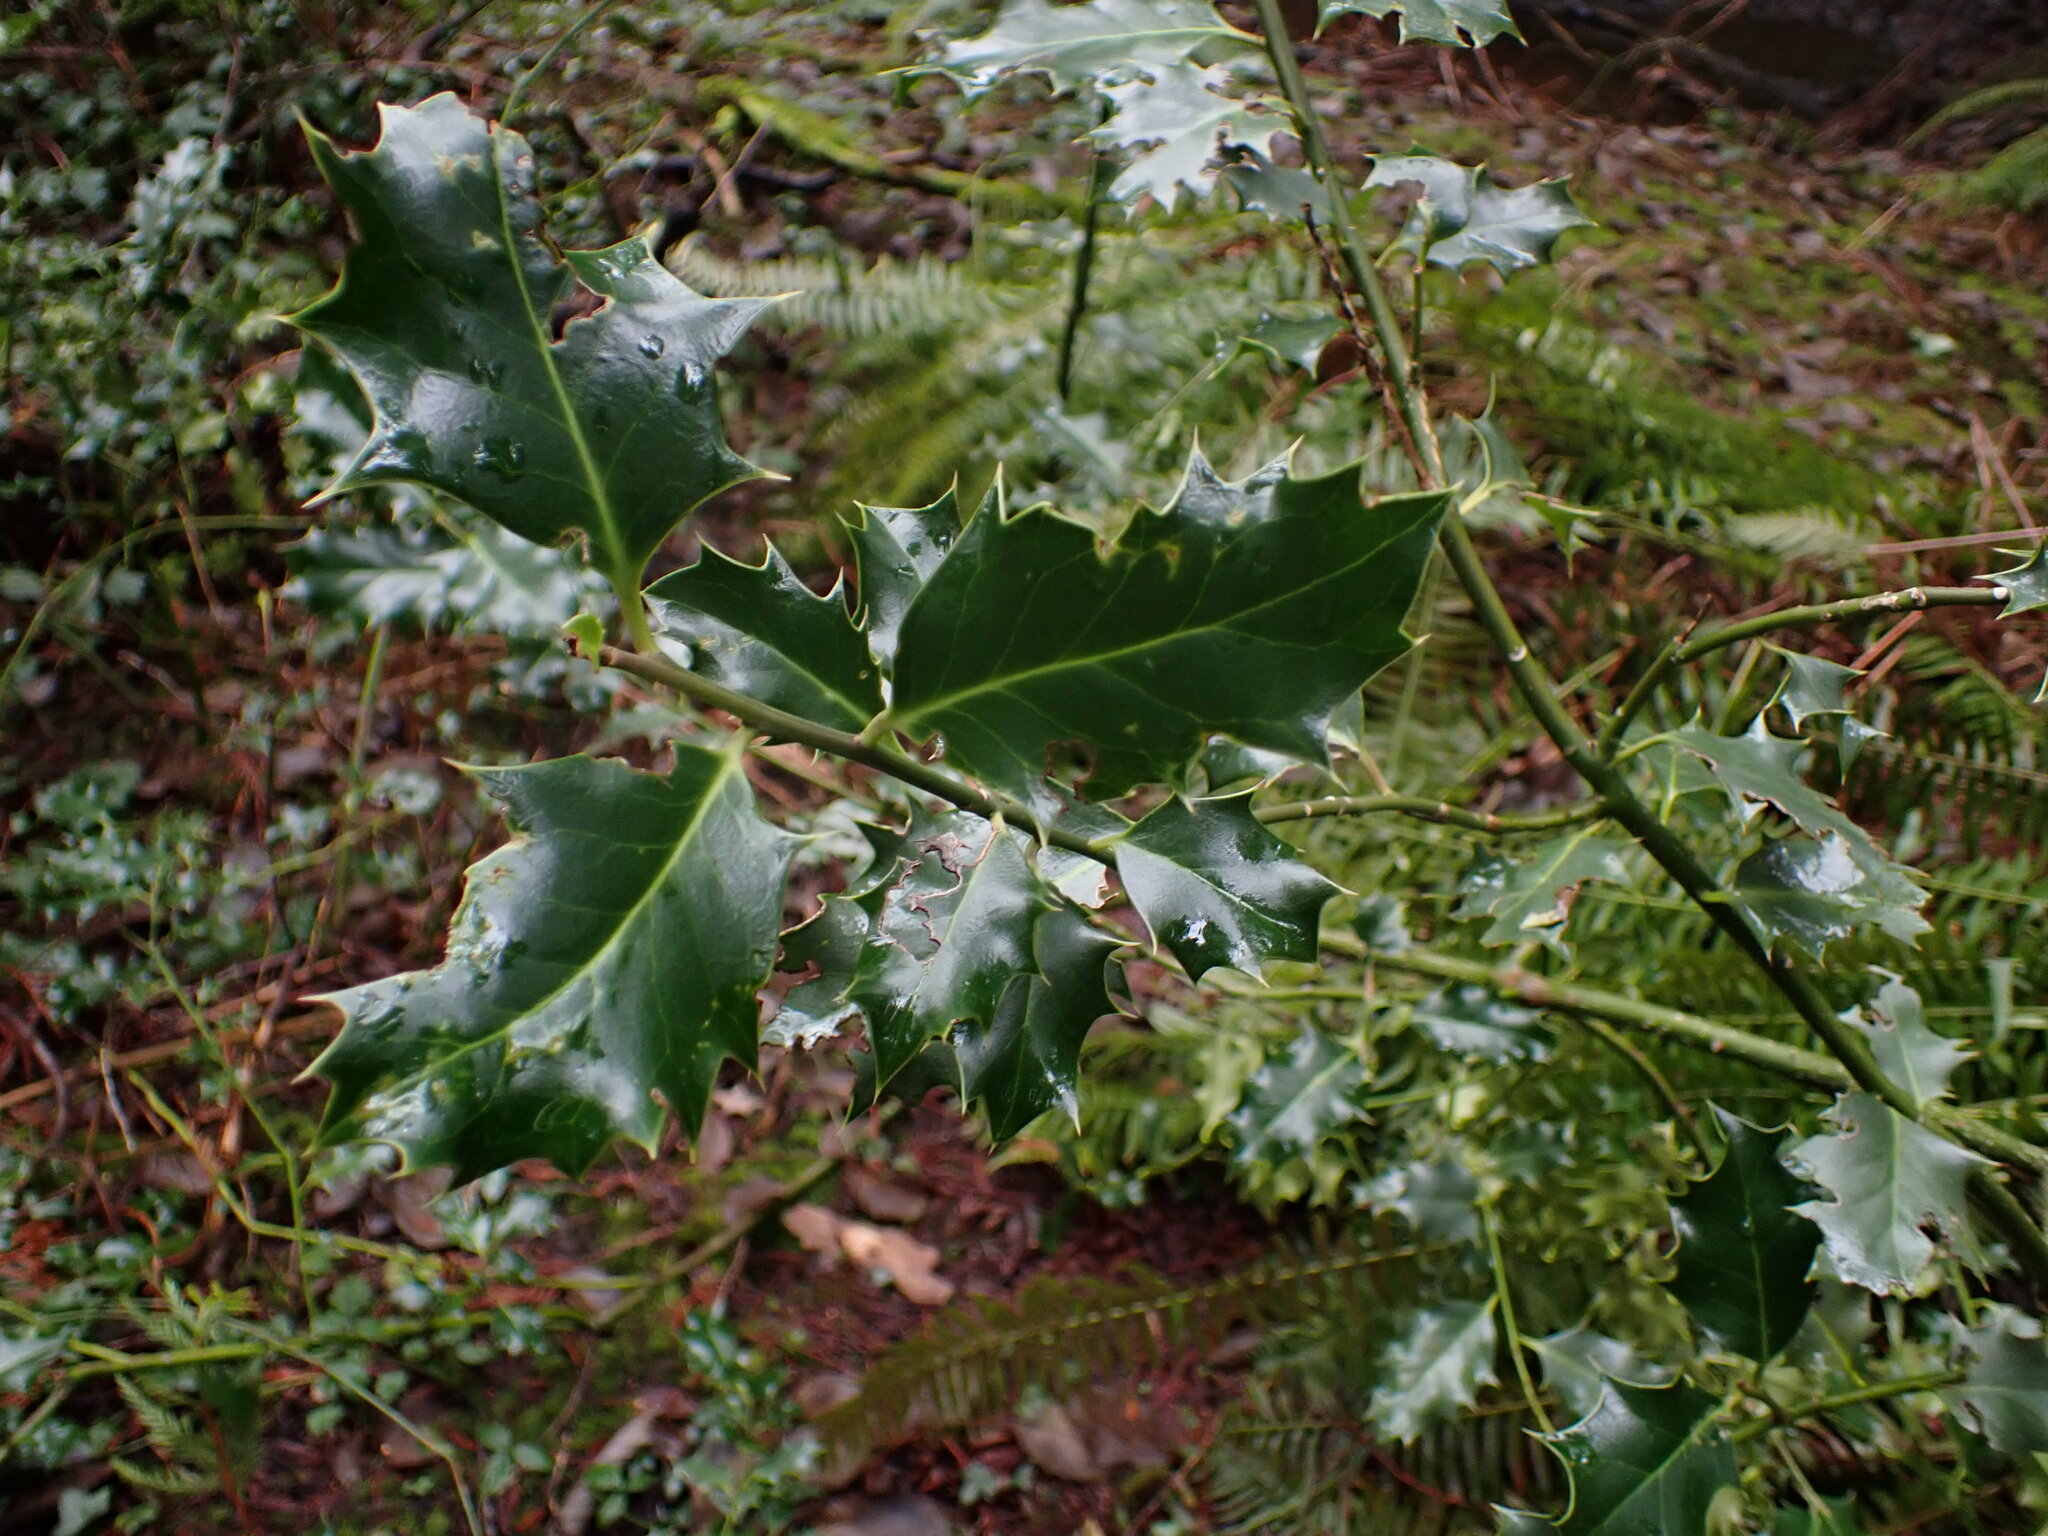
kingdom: Plantae
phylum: Tracheophyta
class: Magnoliopsida
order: Aquifoliales
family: Aquifoliaceae
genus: Ilex
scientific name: Ilex aquifolium
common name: English holly
